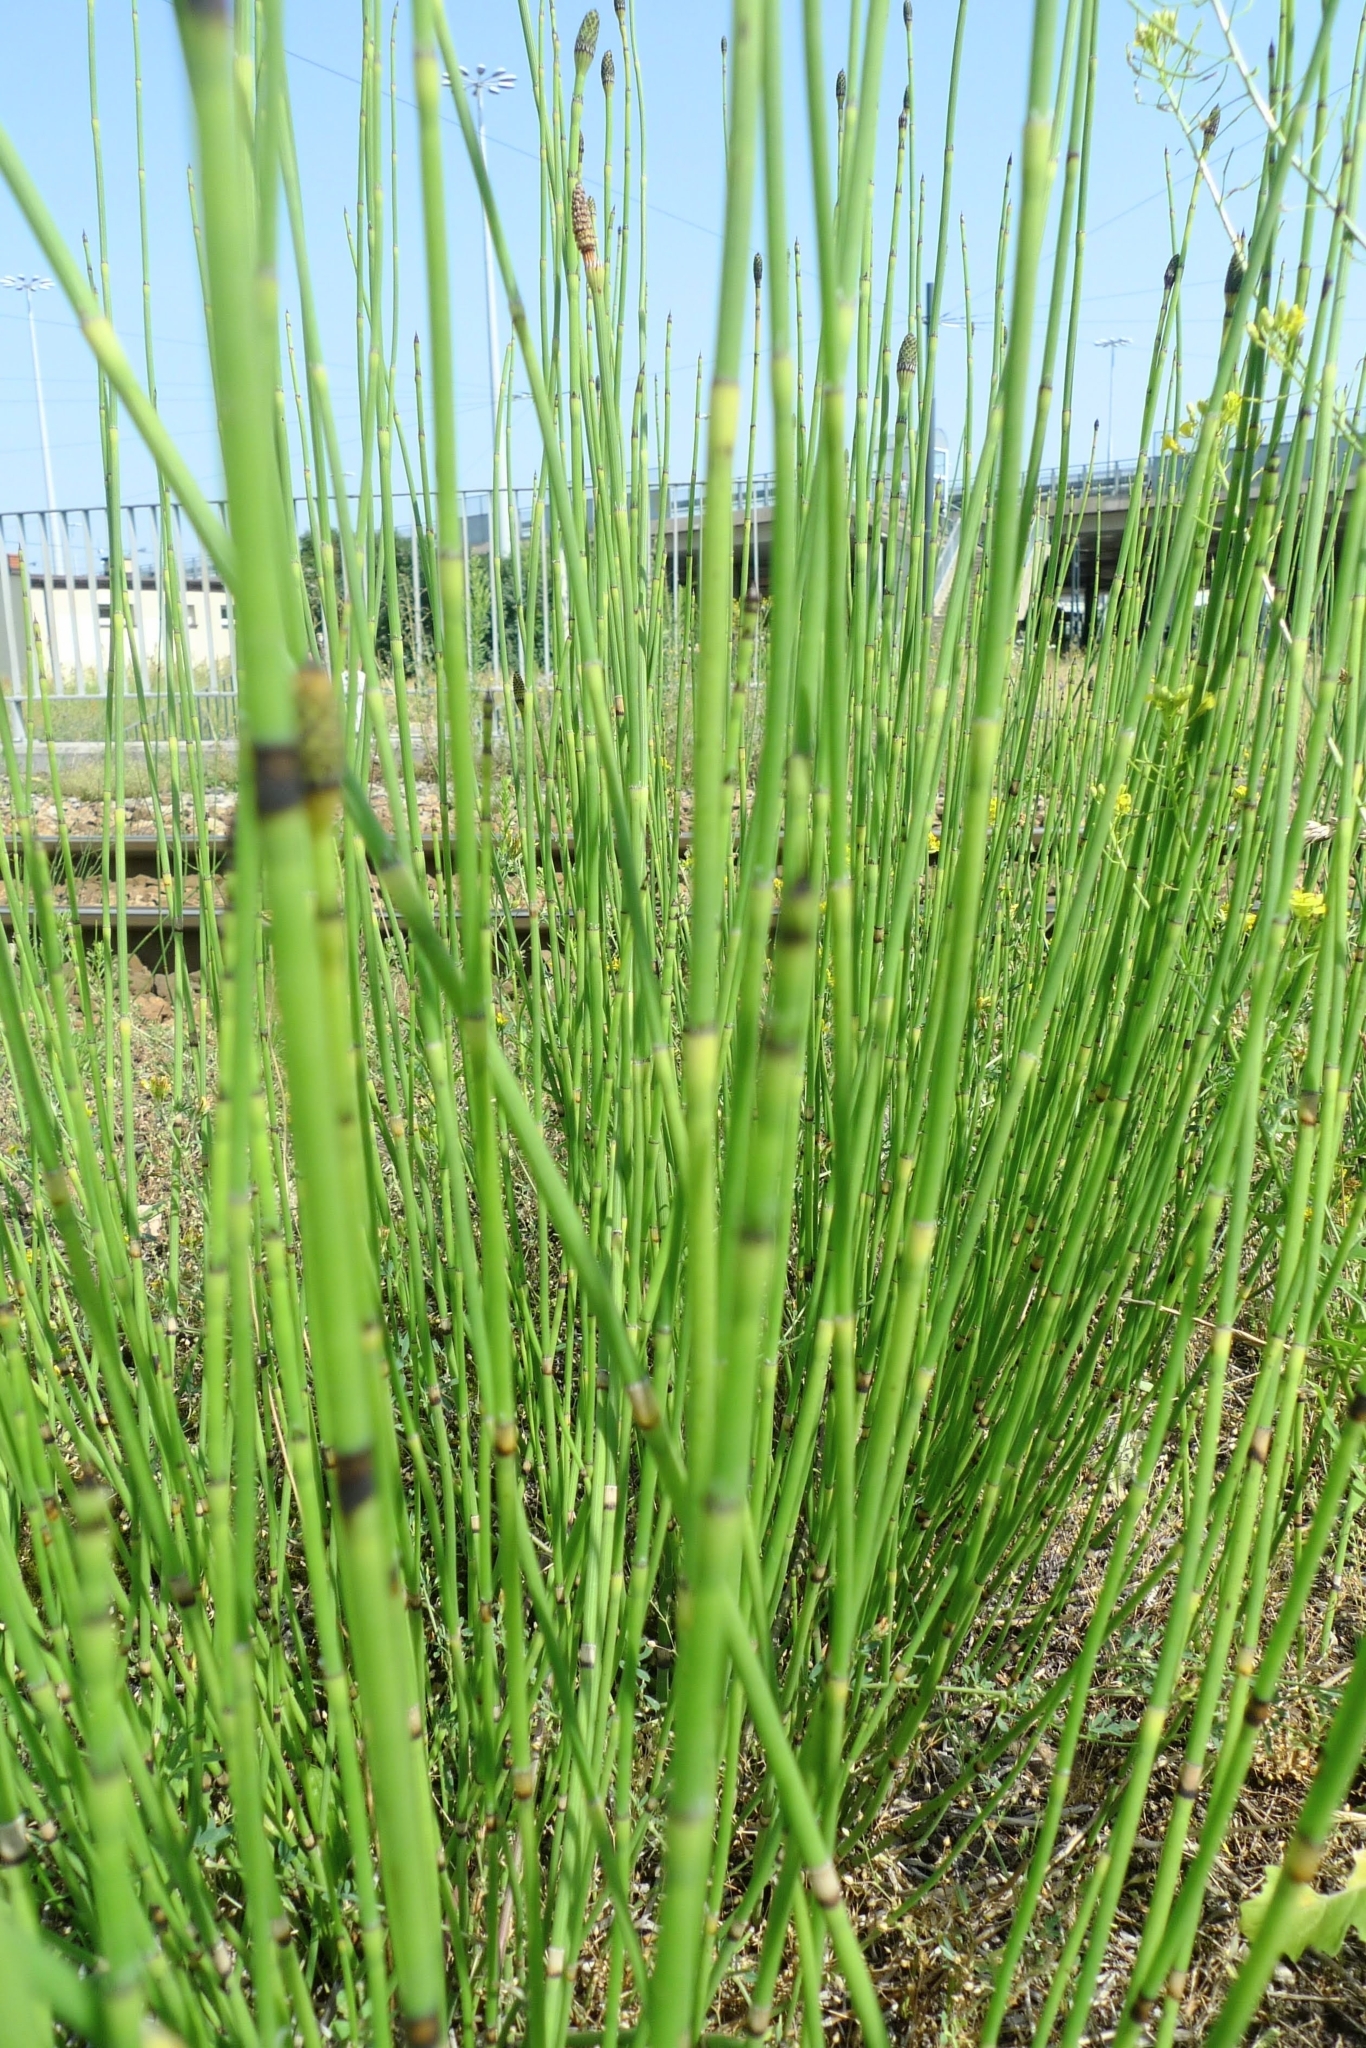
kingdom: Plantae
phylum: Tracheophyta
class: Polypodiopsida
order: Equisetales
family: Equisetaceae
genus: Equisetum
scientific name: Equisetum ramosissimum
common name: Branched horsetail
